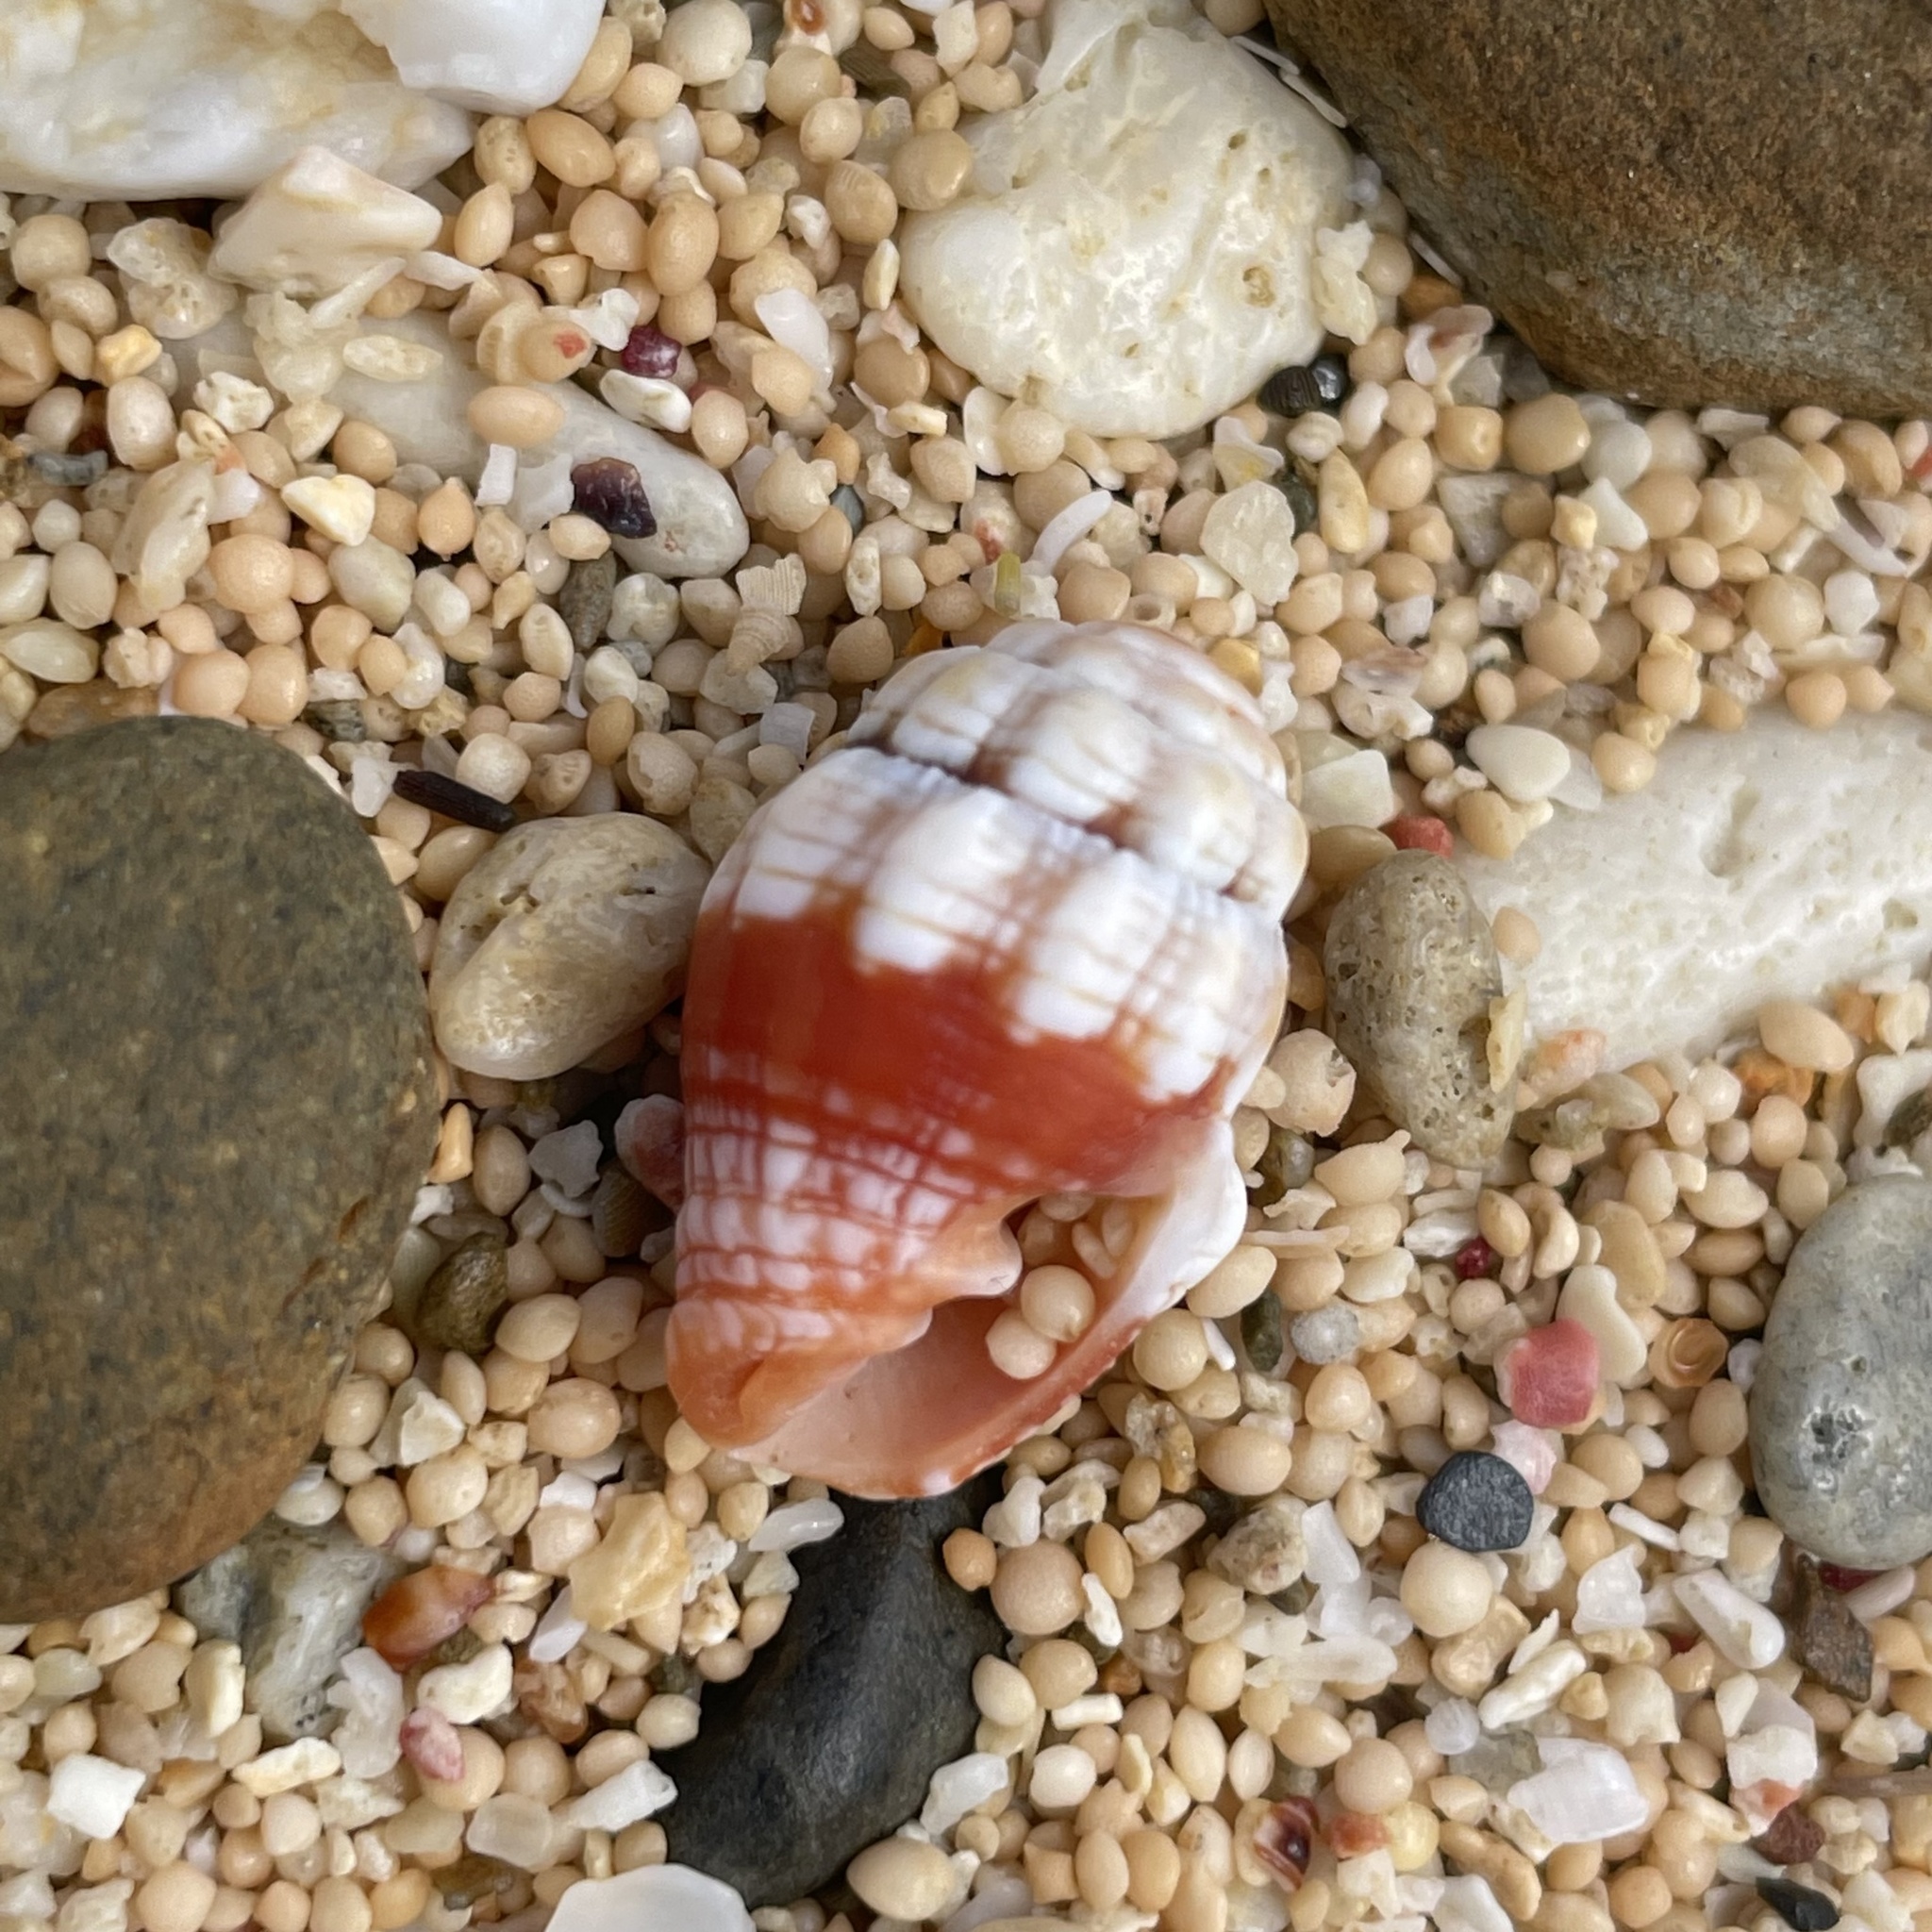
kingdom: Animalia
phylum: Mollusca
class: Gastropoda
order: Neogastropoda
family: Costellariidae
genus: Orphanopusia
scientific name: Orphanopusia patriarchalis
